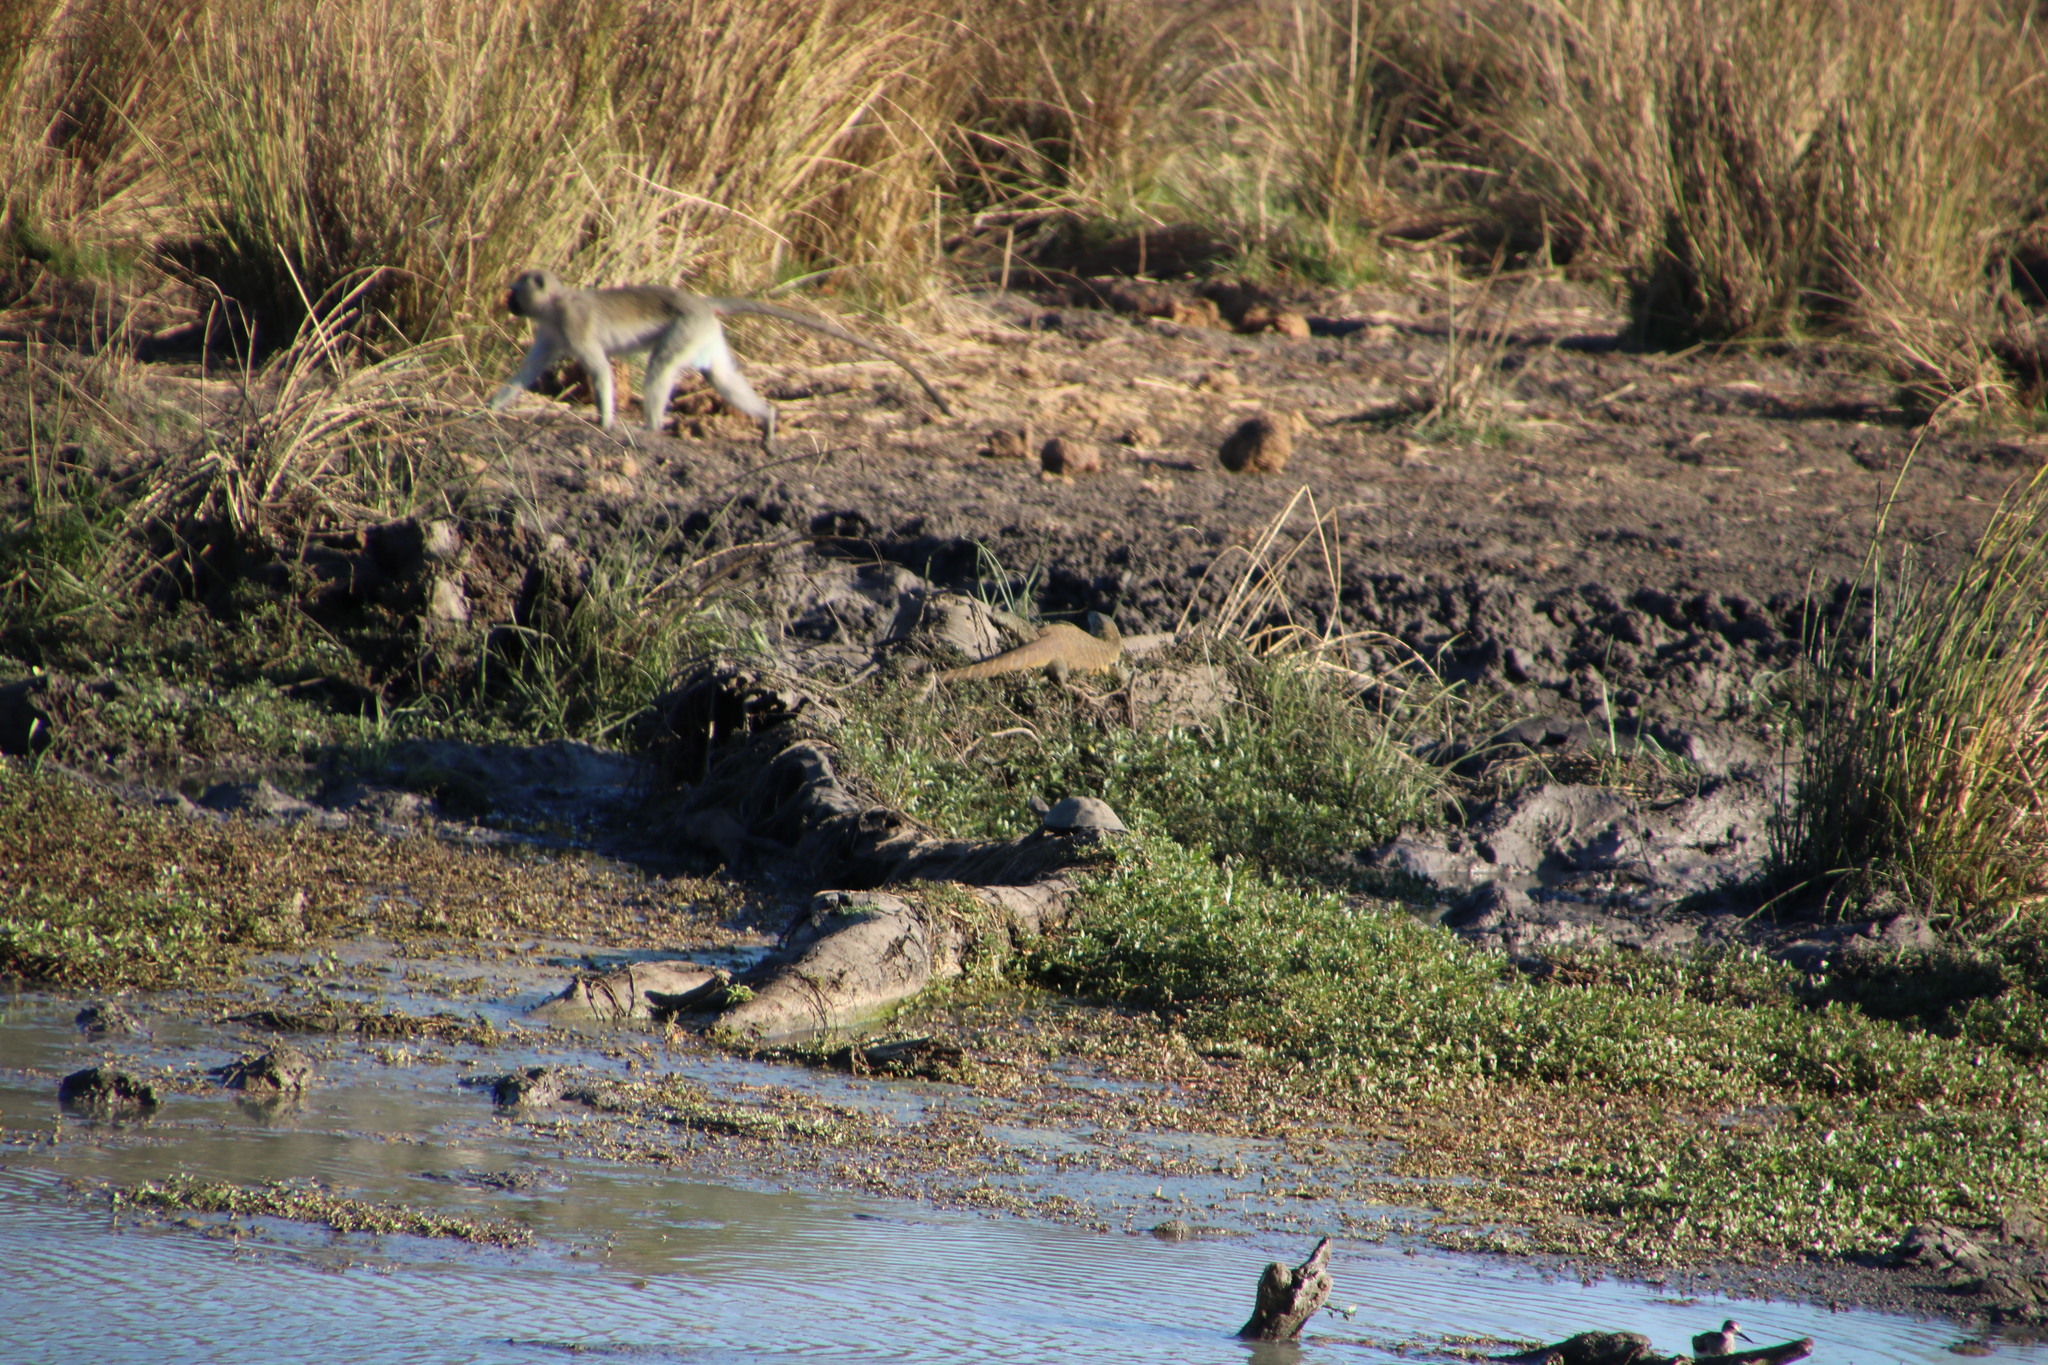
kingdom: Animalia
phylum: Chordata
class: Mammalia
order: Primates
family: Cercopithecidae
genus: Chlorocebus
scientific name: Chlorocebus pygerythrus
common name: Vervet monkey
